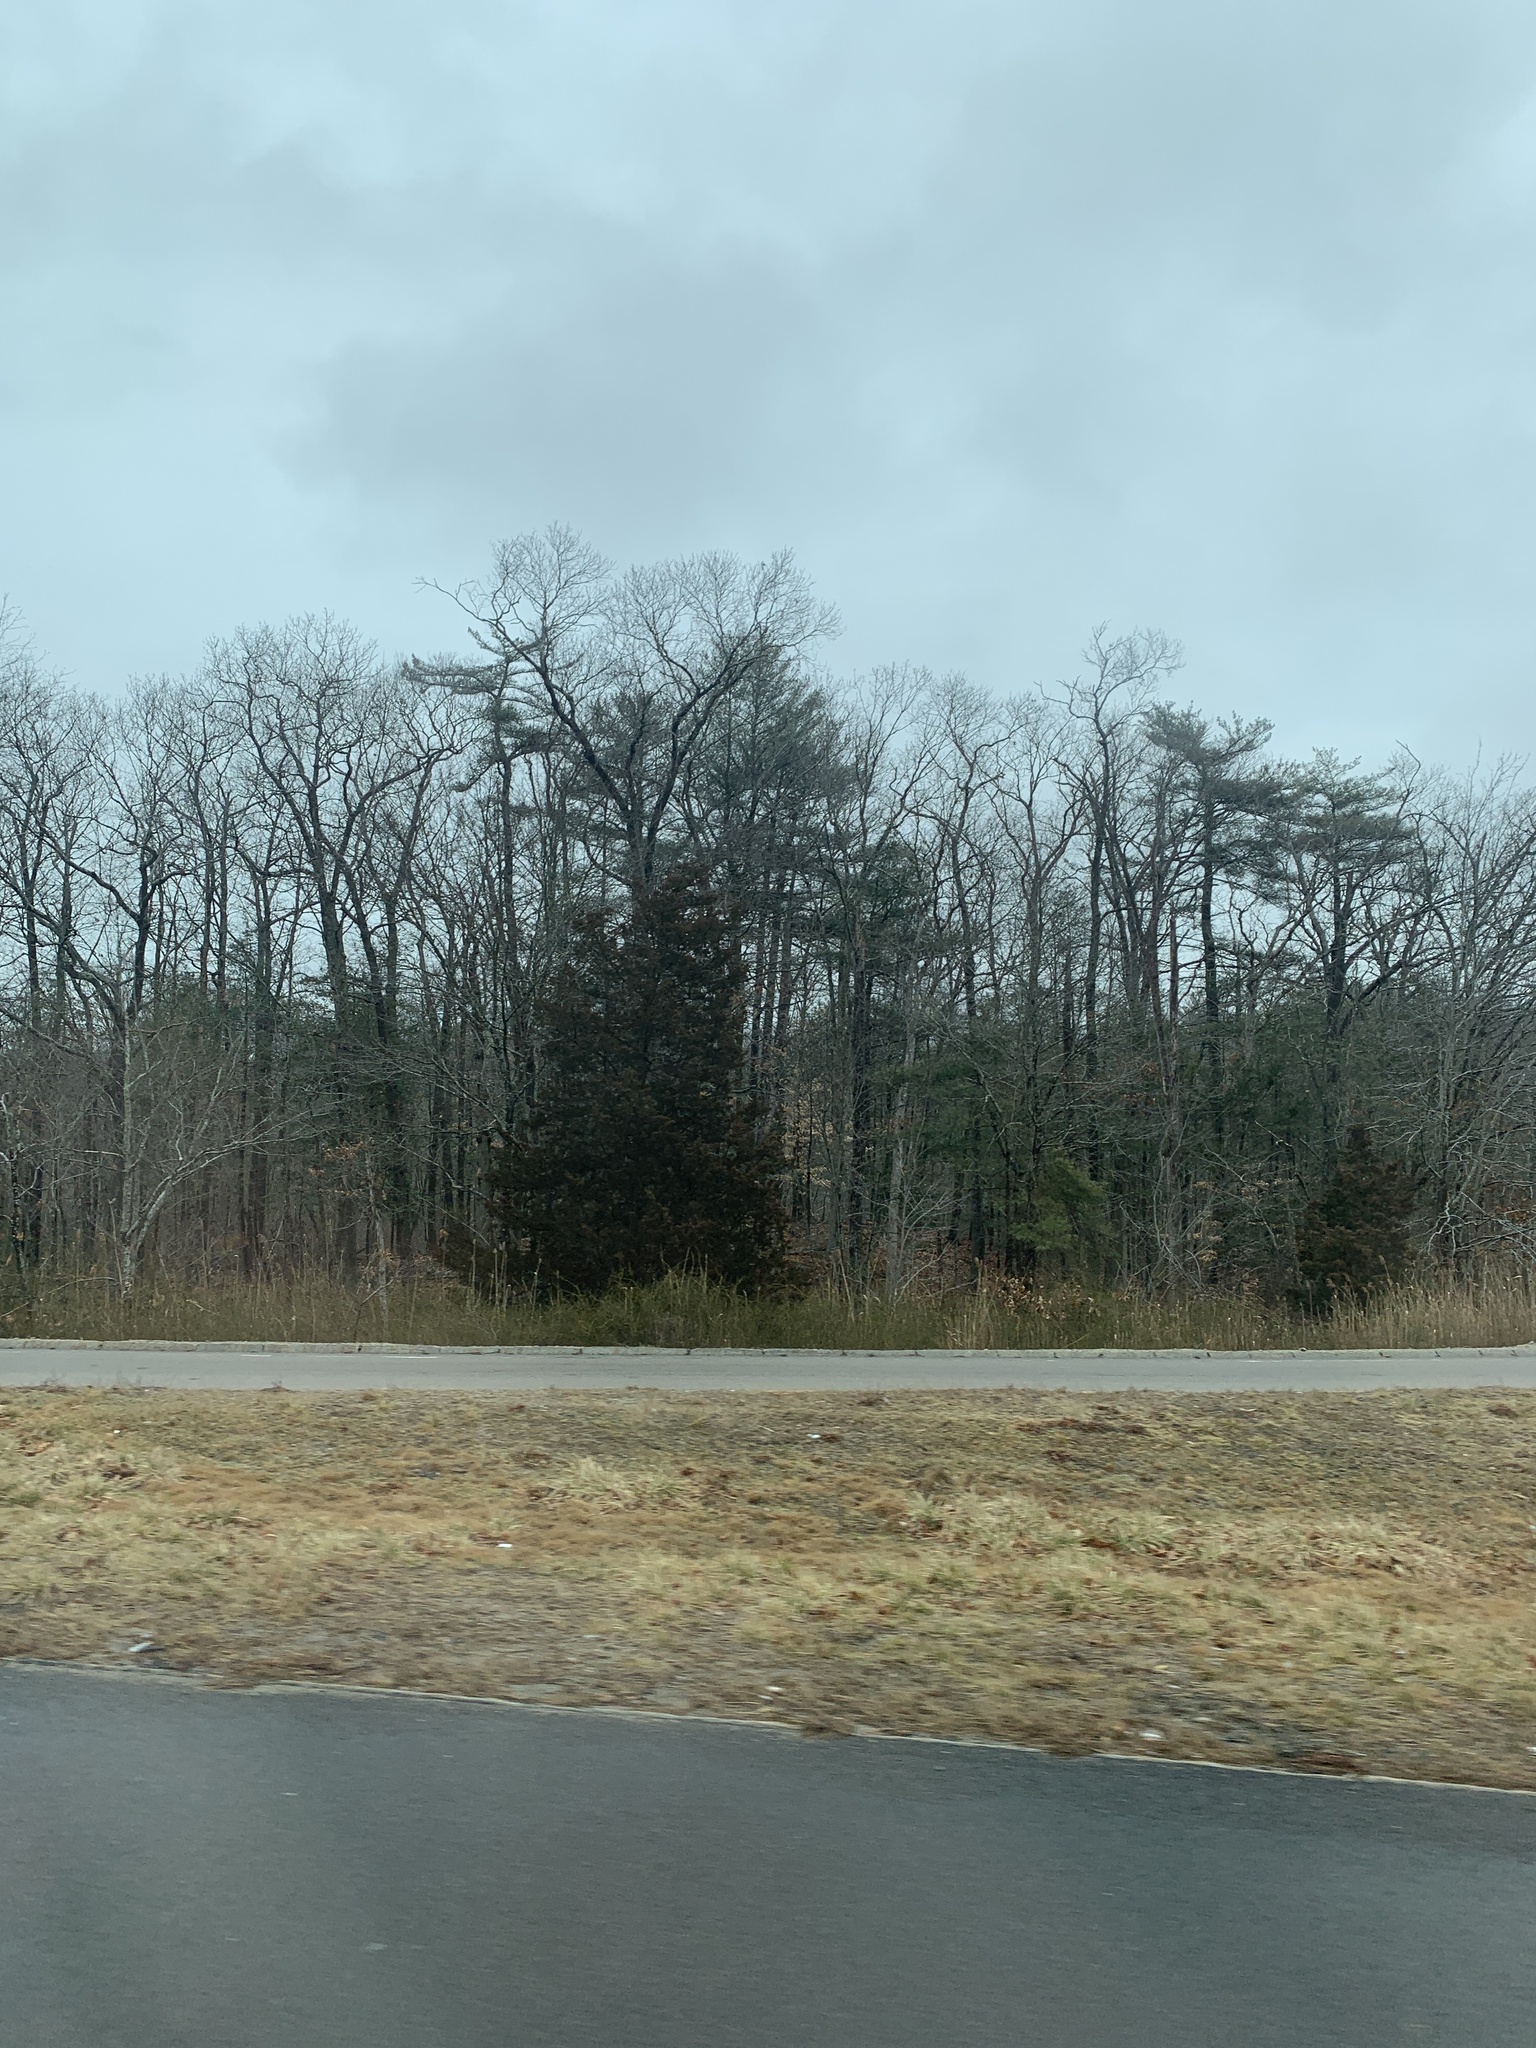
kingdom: Plantae
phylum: Tracheophyta
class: Pinopsida
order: Pinales
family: Pinaceae
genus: Pinus
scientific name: Pinus strobus
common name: Weymouth pine
